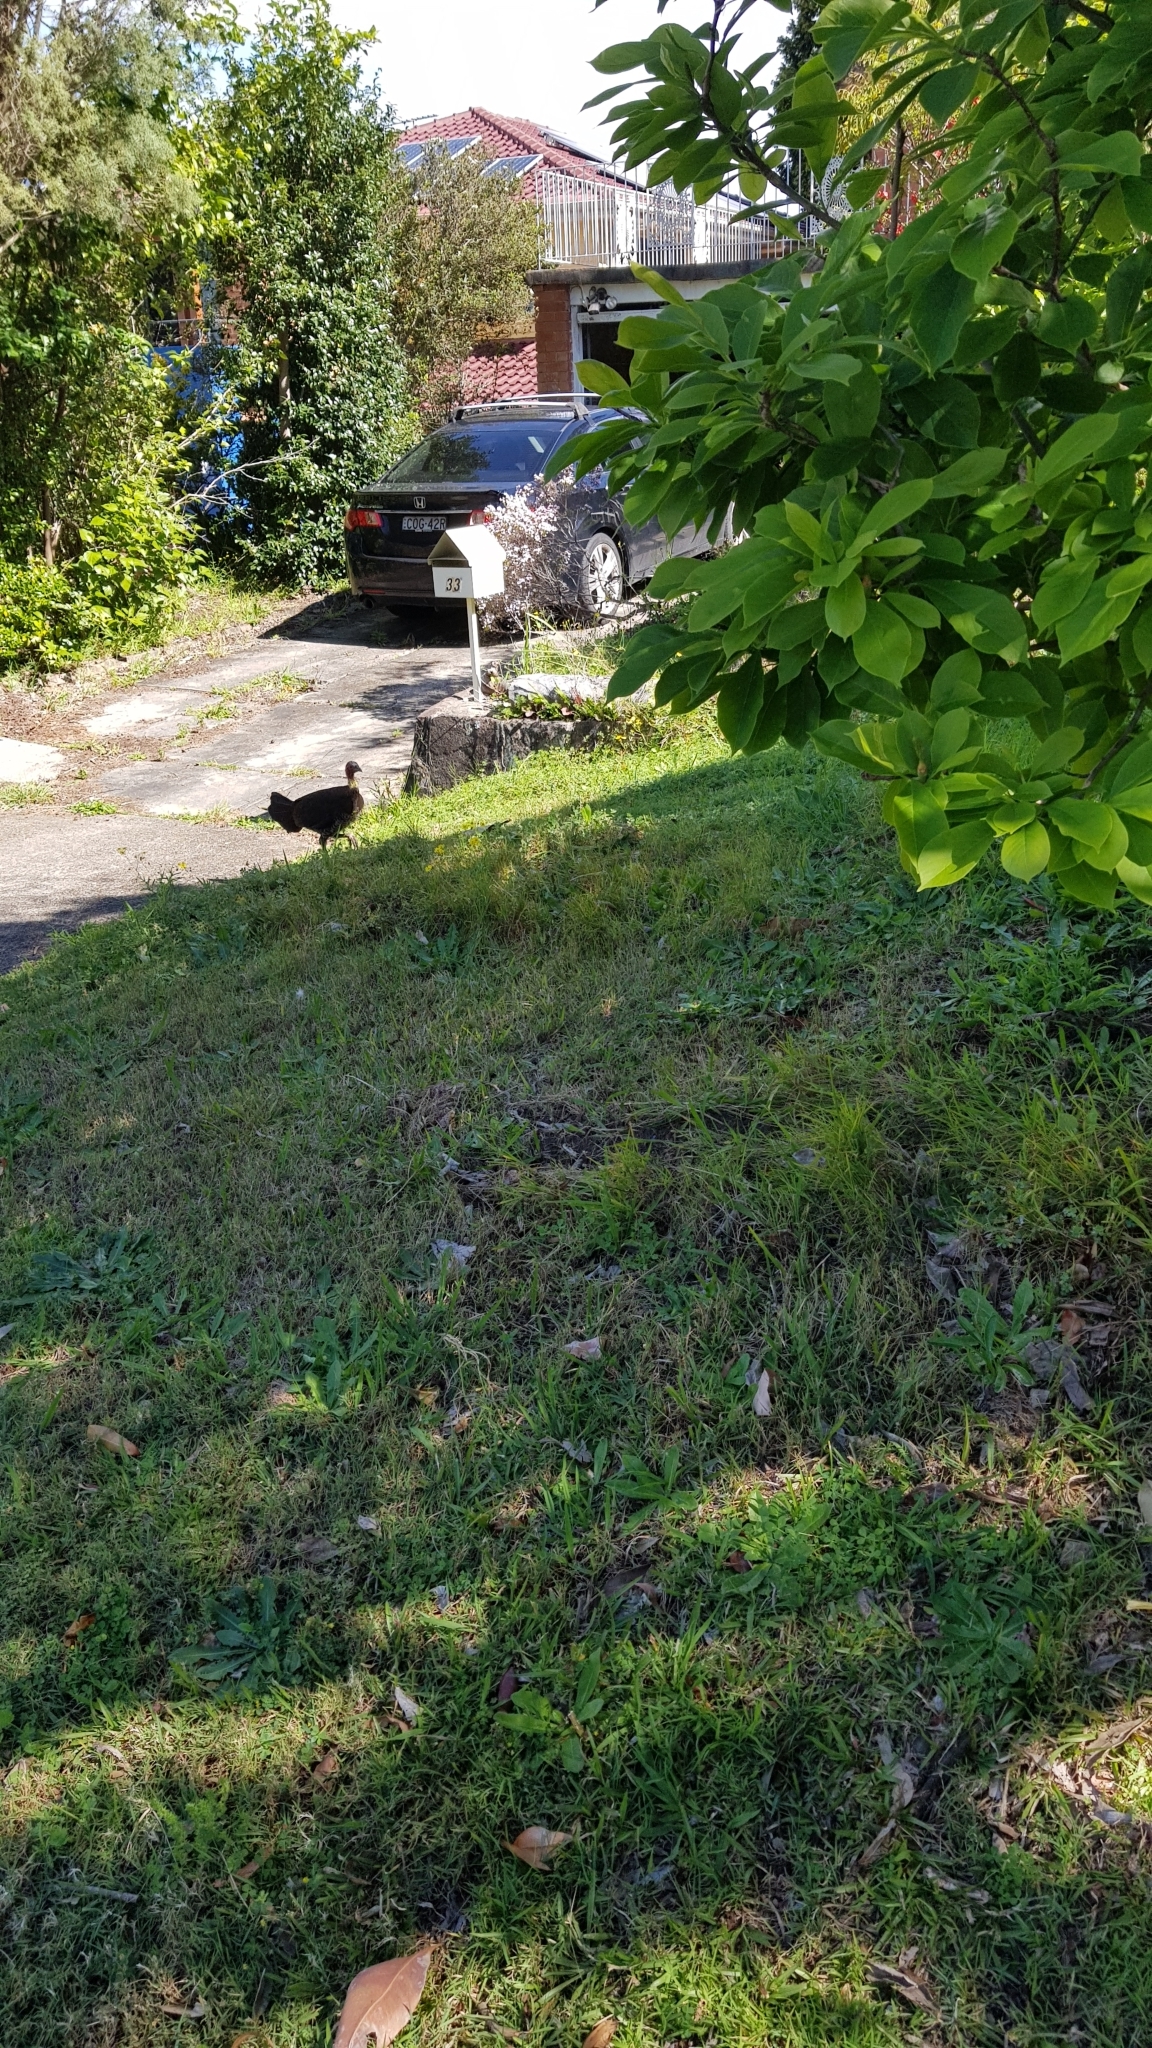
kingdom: Animalia
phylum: Chordata
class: Aves
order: Galliformes
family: Megapodiidae
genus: Alectura
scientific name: Alectura lathami
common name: Australian brushturkey
